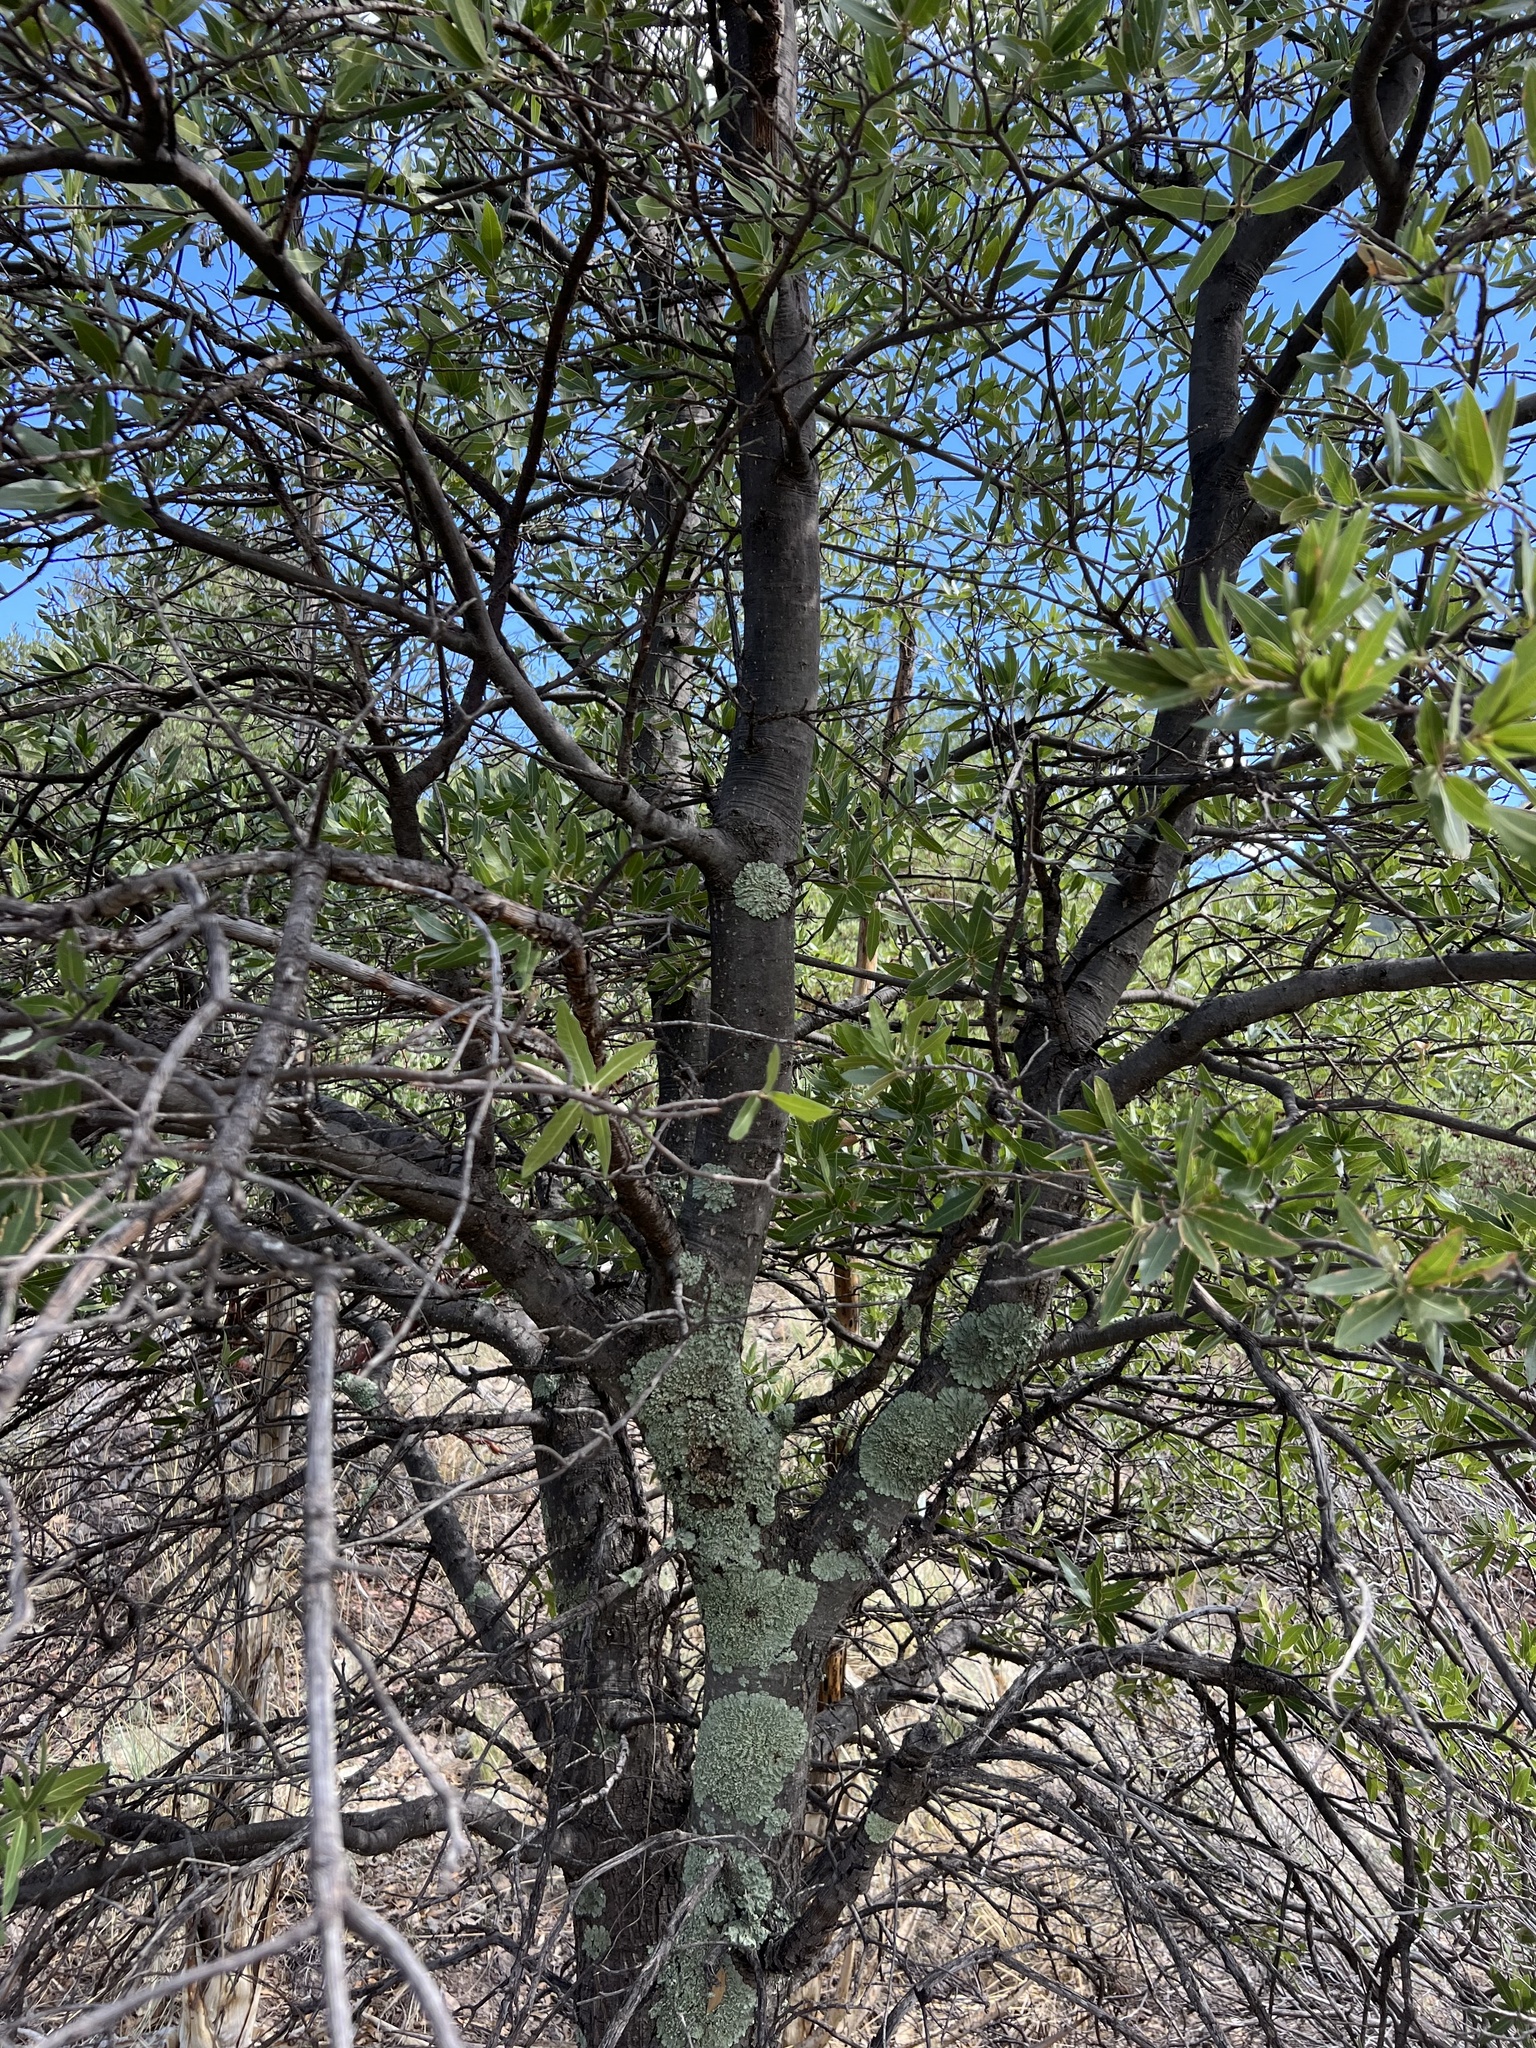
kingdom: Plantae
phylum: Tracheophyta
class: Magnoliopsida
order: Fagales
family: Fagaceae
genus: Quercus
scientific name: Quercus hypoleucoides
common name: Silverleaf oak
